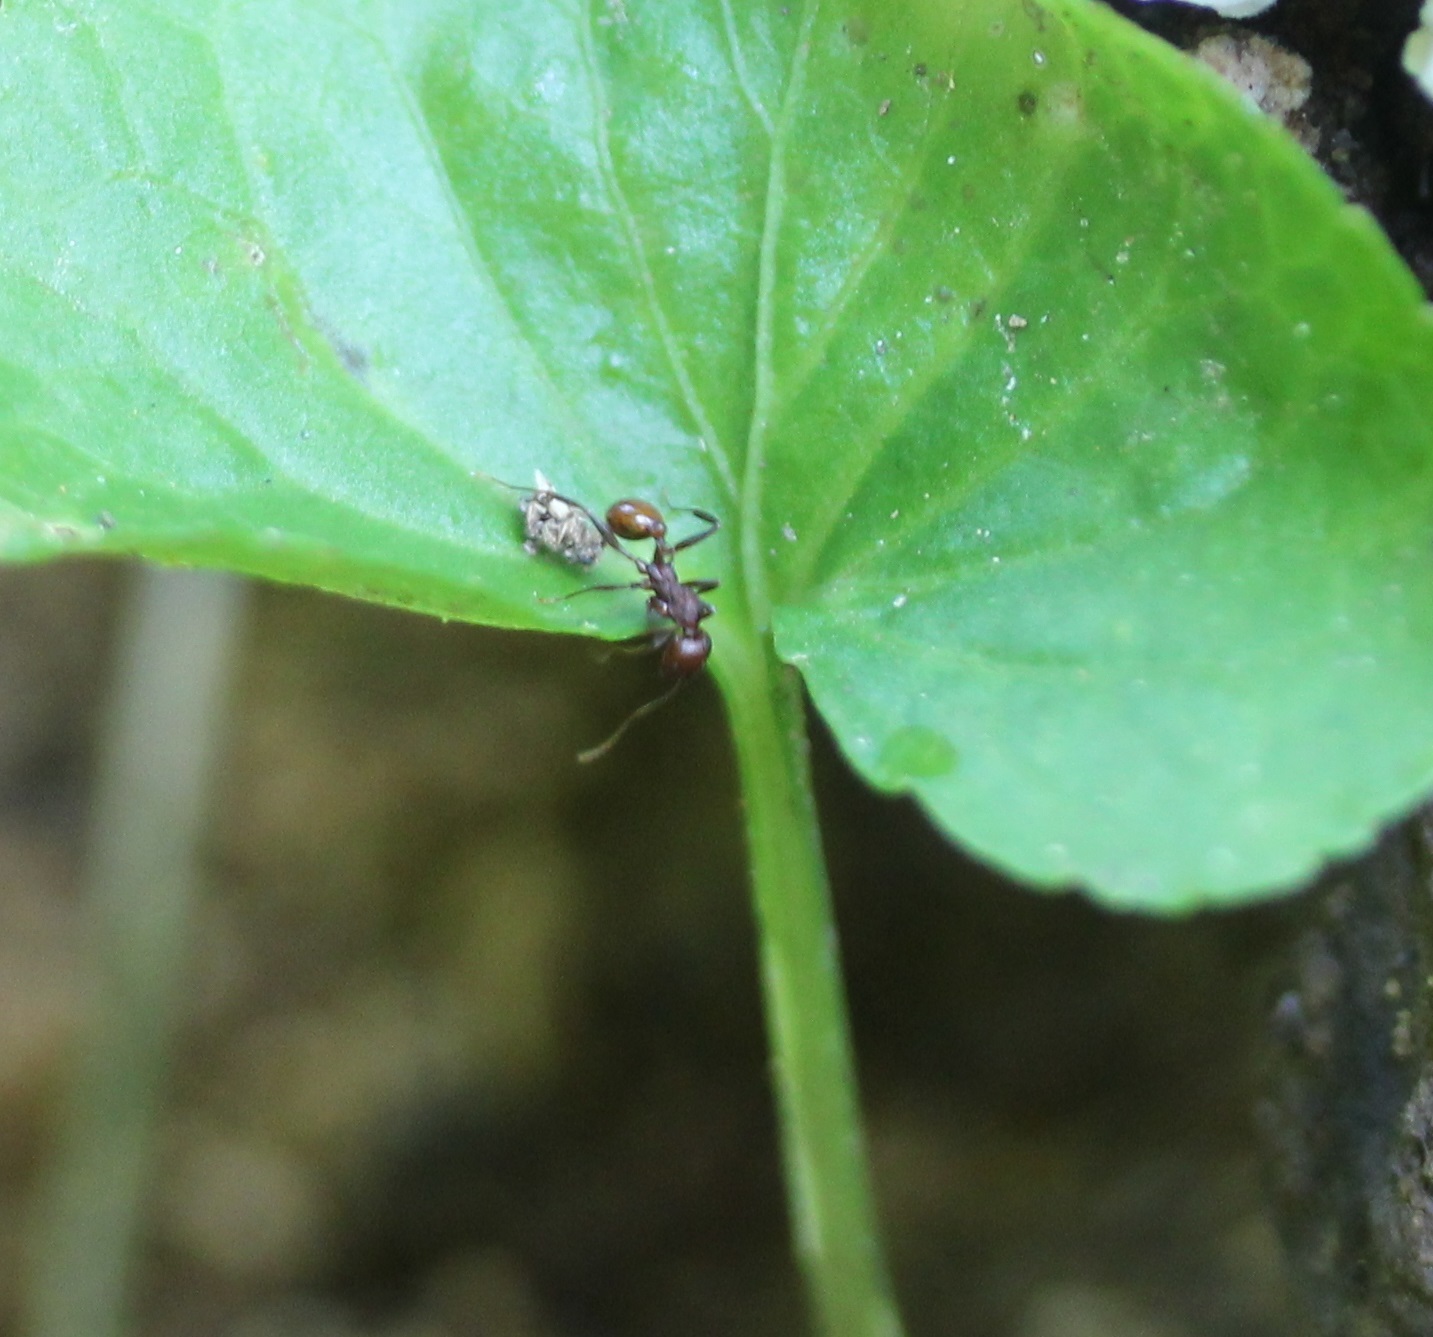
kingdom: Animalia
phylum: Arthropoda
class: Insecta
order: Hymenoptera
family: Formicidae
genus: Aphaenogaster
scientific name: Aphaenogaster tennesseensis
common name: Tennessee thread-waisted ant
